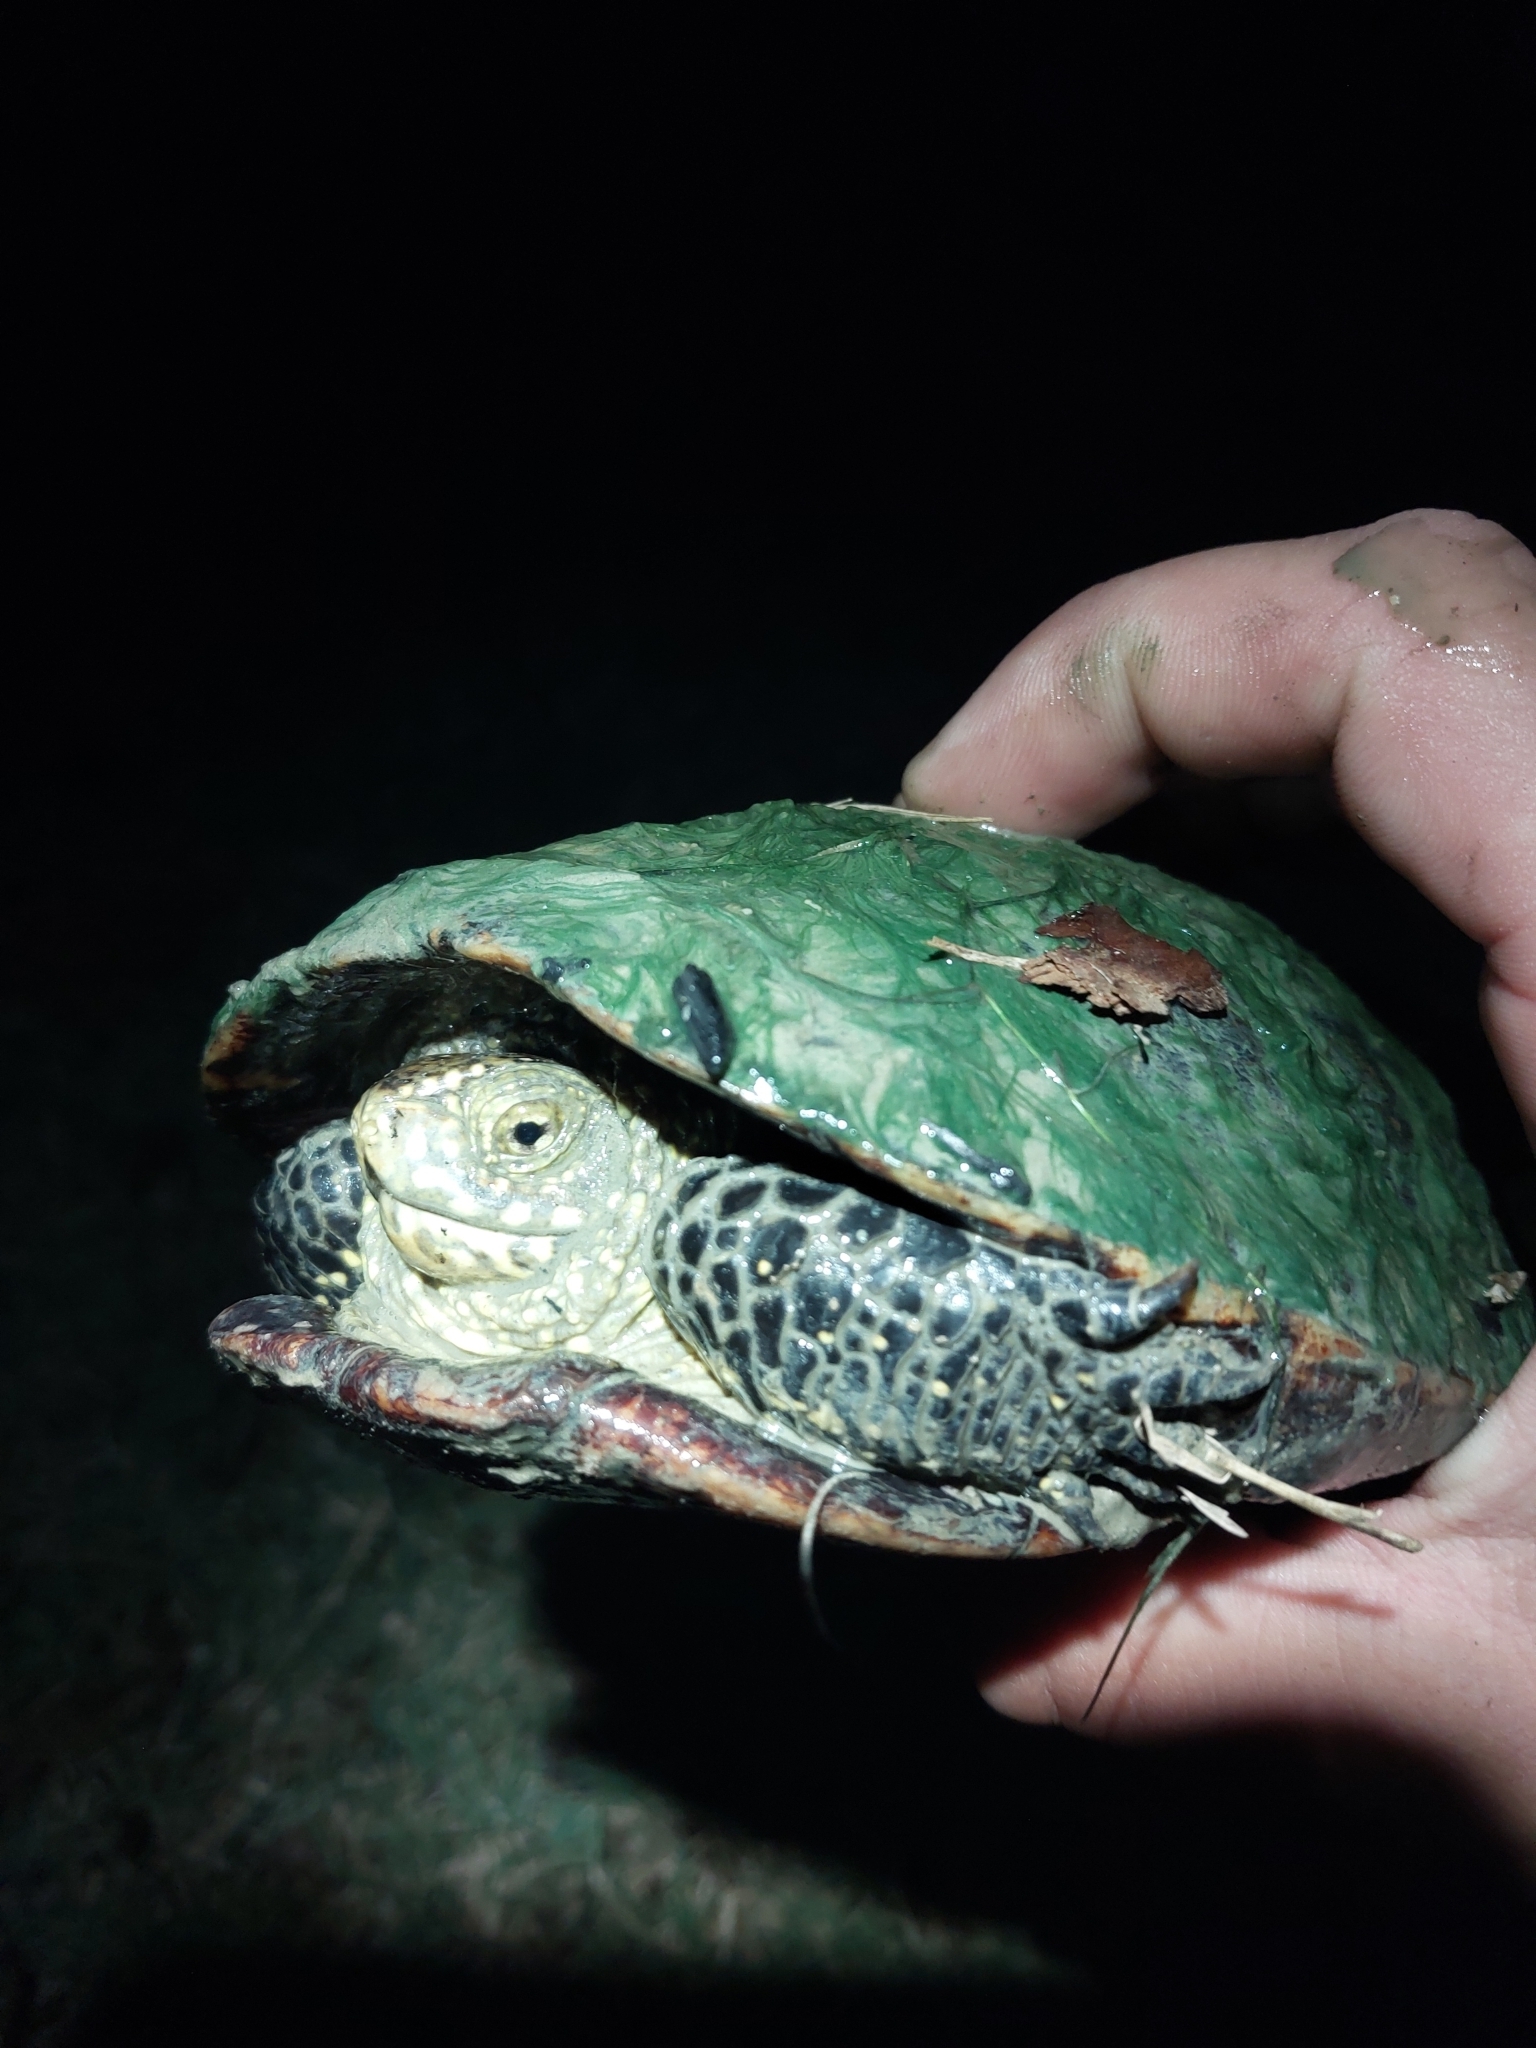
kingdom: Animalia
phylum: Chordata
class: Testudines
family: Emydidae
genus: Emys
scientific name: Emys orbicularis
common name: European pond turtle
